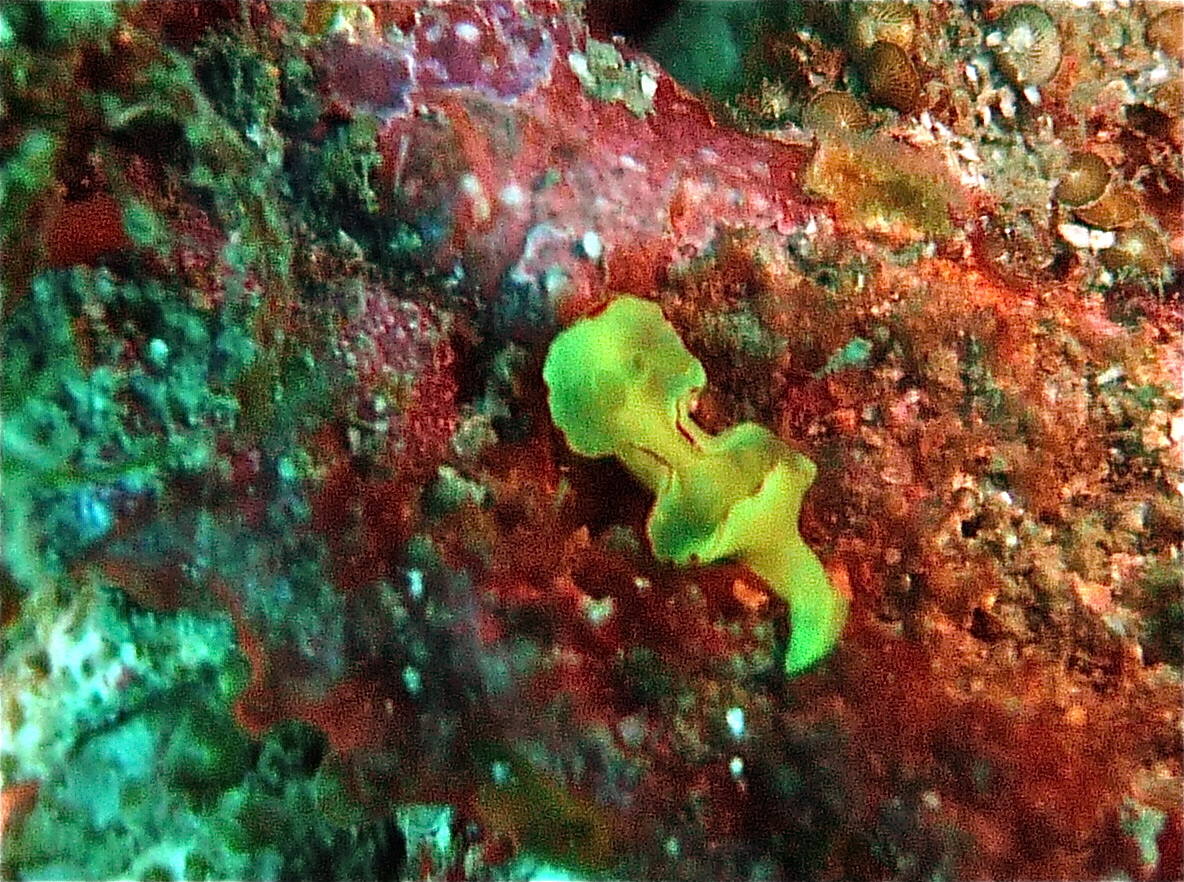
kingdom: Animalia
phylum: Mollusca
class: Gastropoda
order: Nudibranchia
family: Chromodorididae
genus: Diversidoris
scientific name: Diversidoris flava
